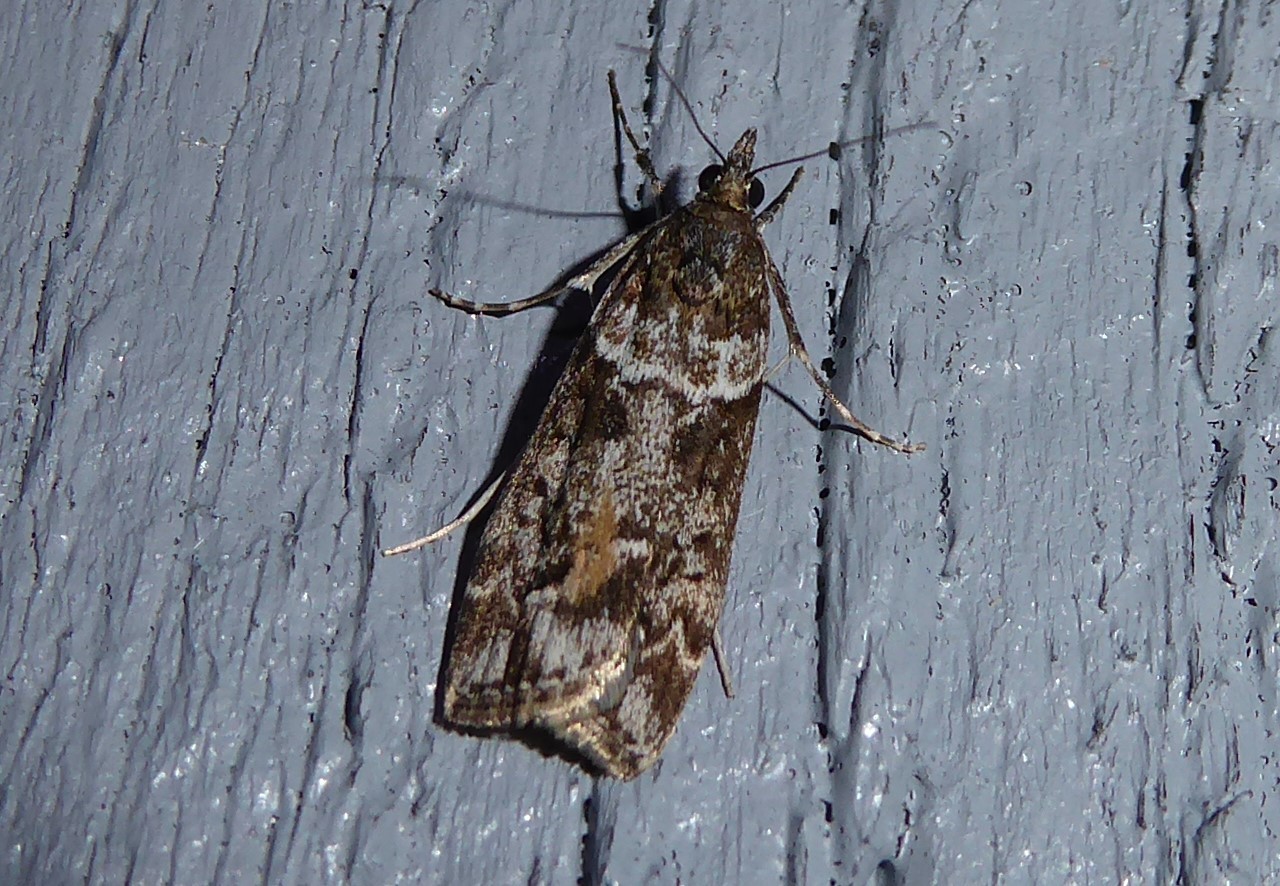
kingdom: Animalia
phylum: Arthropoda
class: Insecta
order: Lepidoptera
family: Crambidae
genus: Eudonia
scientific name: Eudonia submarginalis
